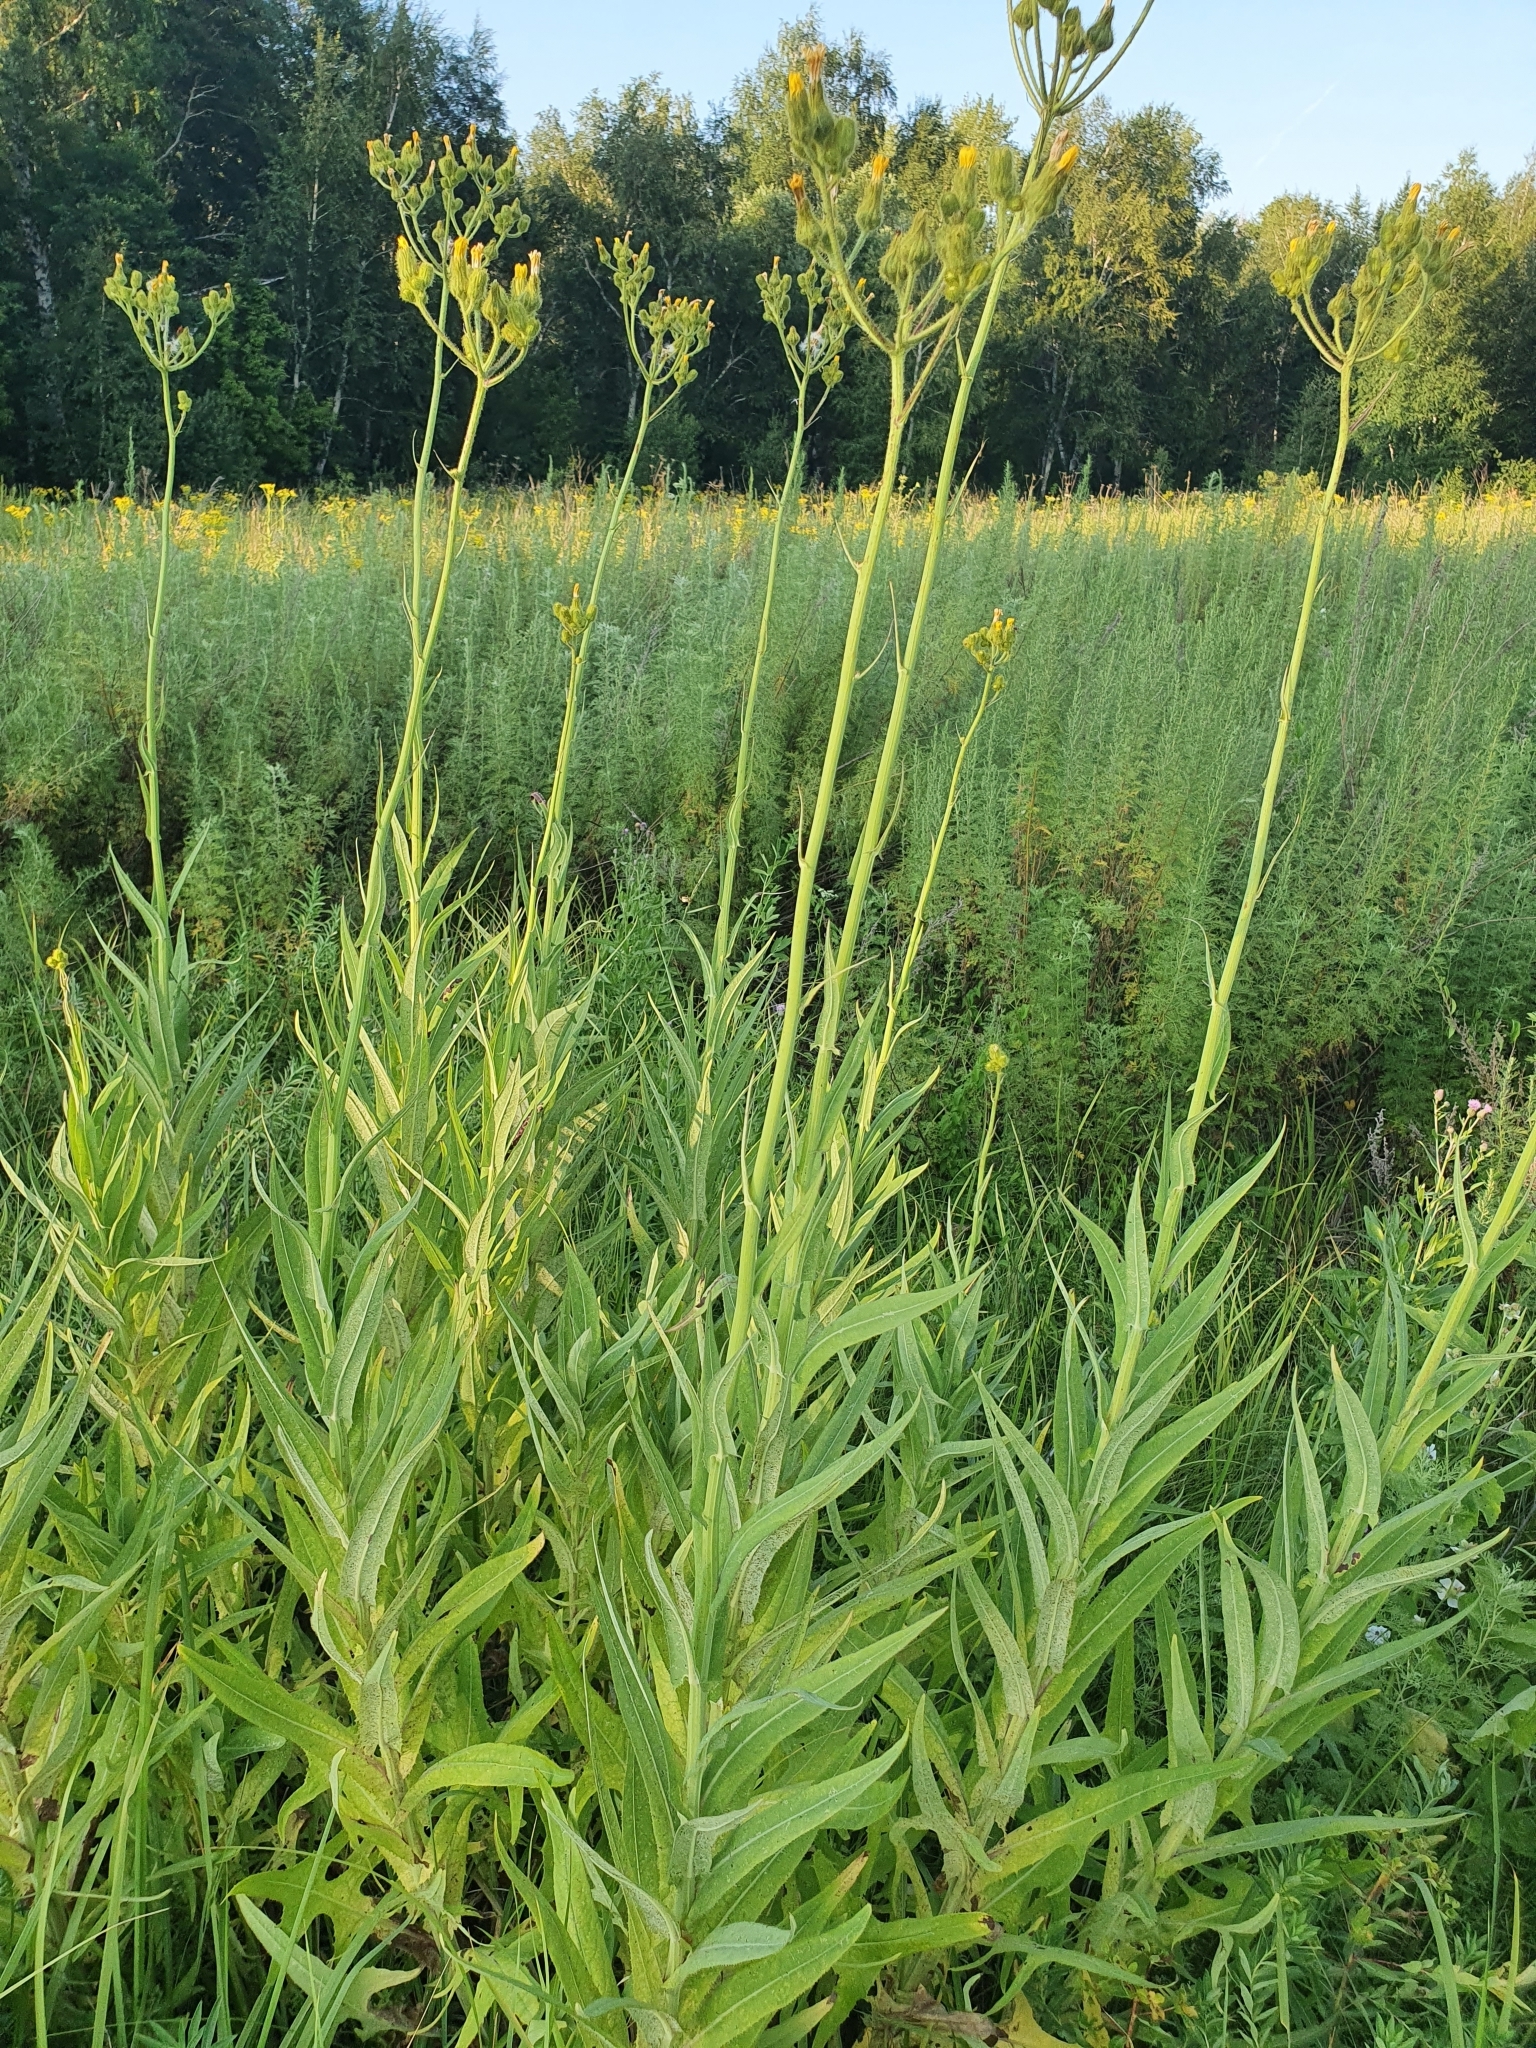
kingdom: Plantae
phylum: Tracheophyta
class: Magnoliopsida
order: Asterales
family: Asteraceae
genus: Sonchus
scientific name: Sonchus palustris
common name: Marsh sow-thistle
